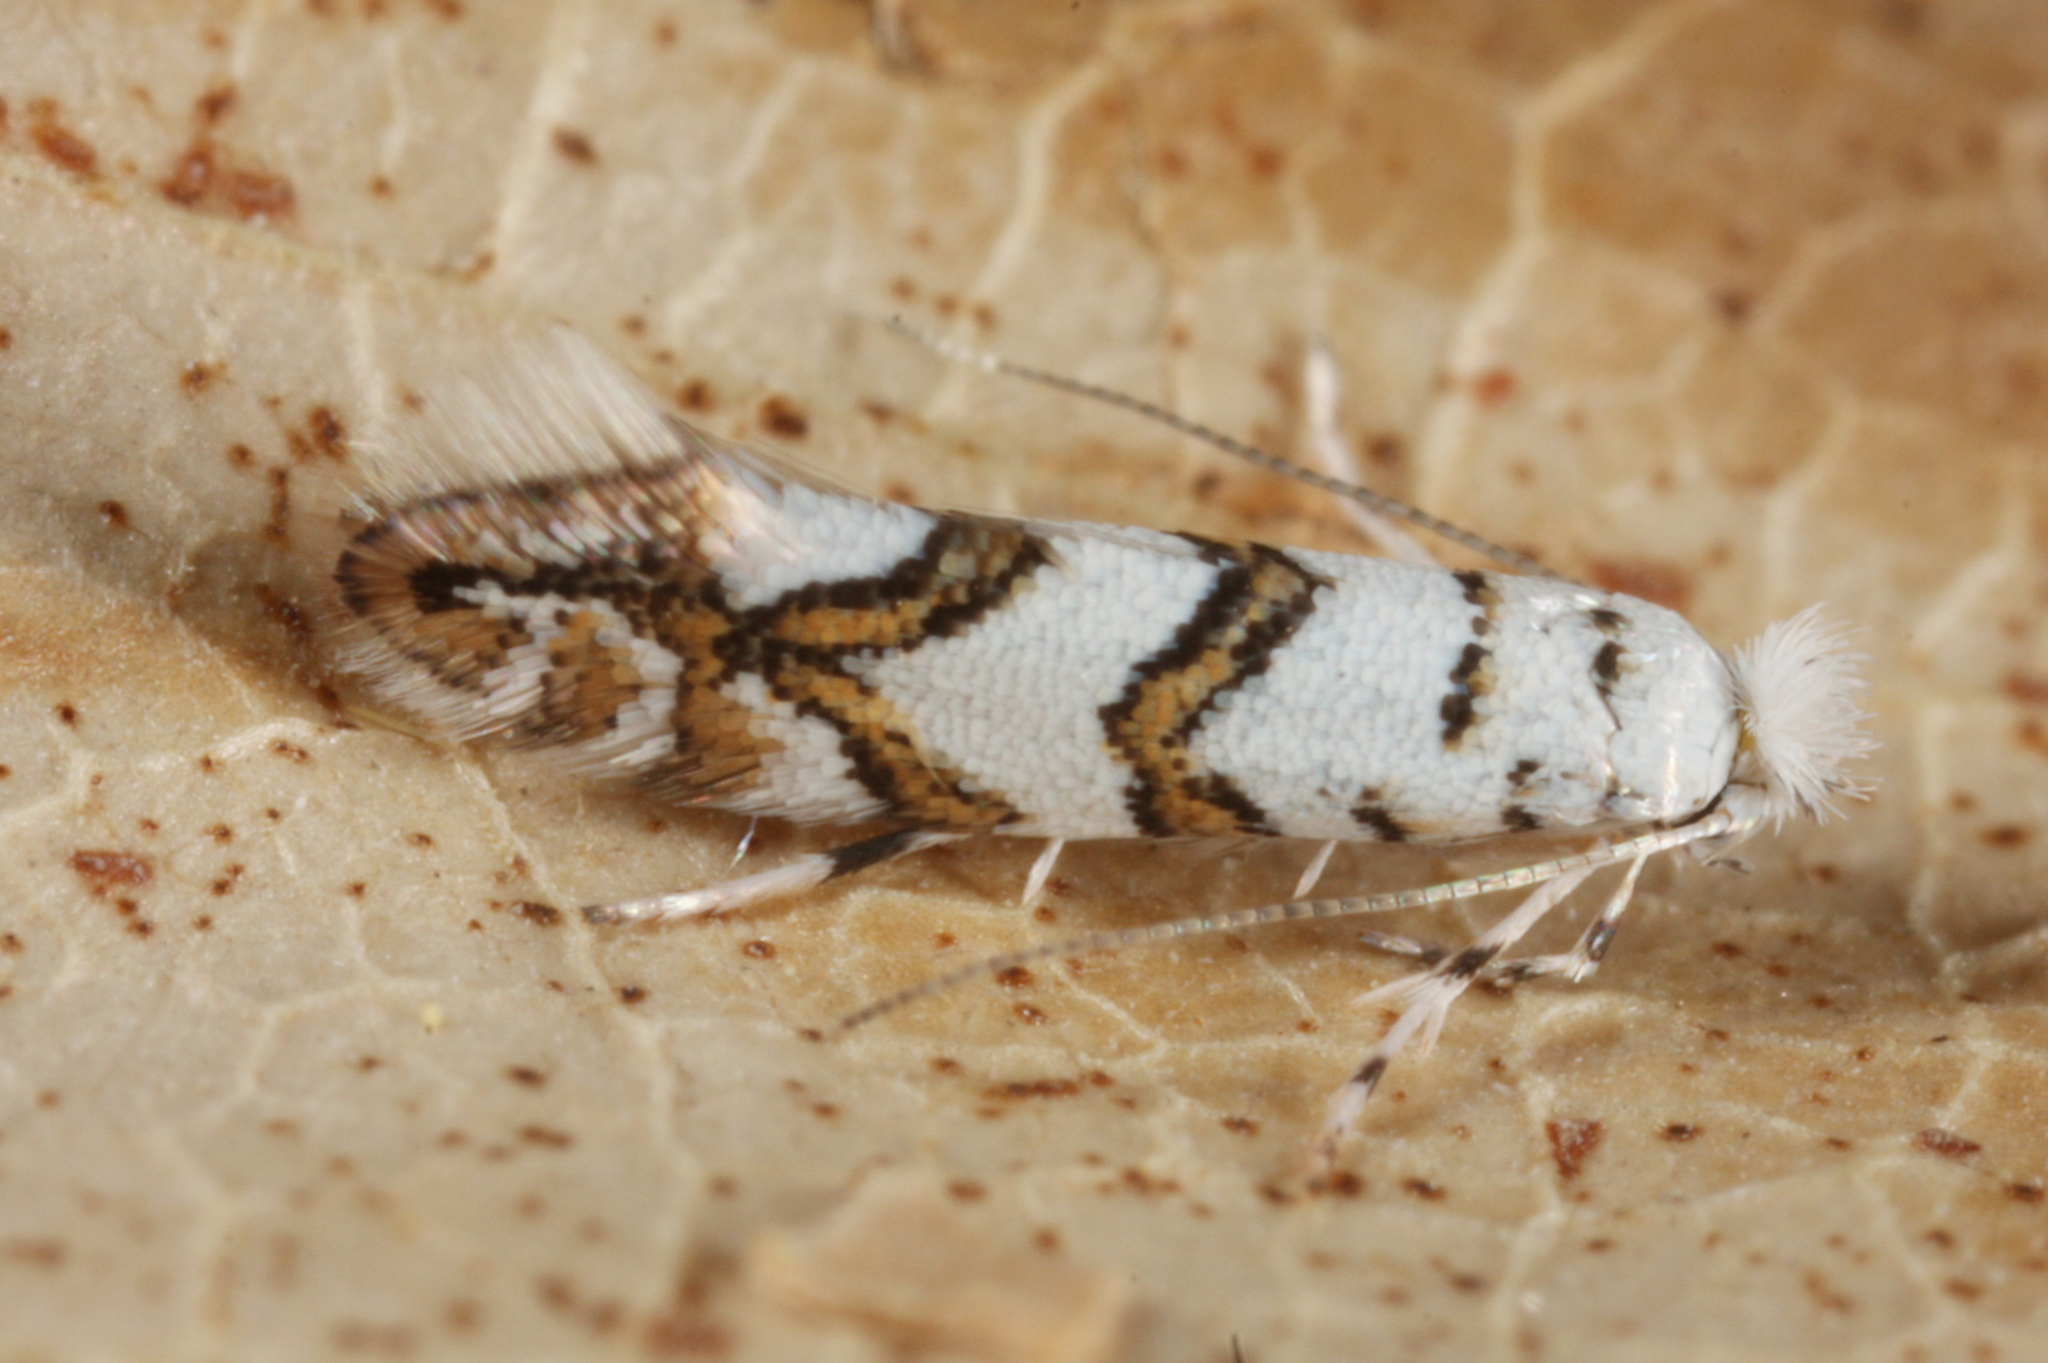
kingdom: Animalia
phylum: Arthropoda
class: Insecta
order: Lepidoptera
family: Gracillariidae
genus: Phyllonorycter
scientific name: Phyllonorycter joannisi
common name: White-bodied midget
